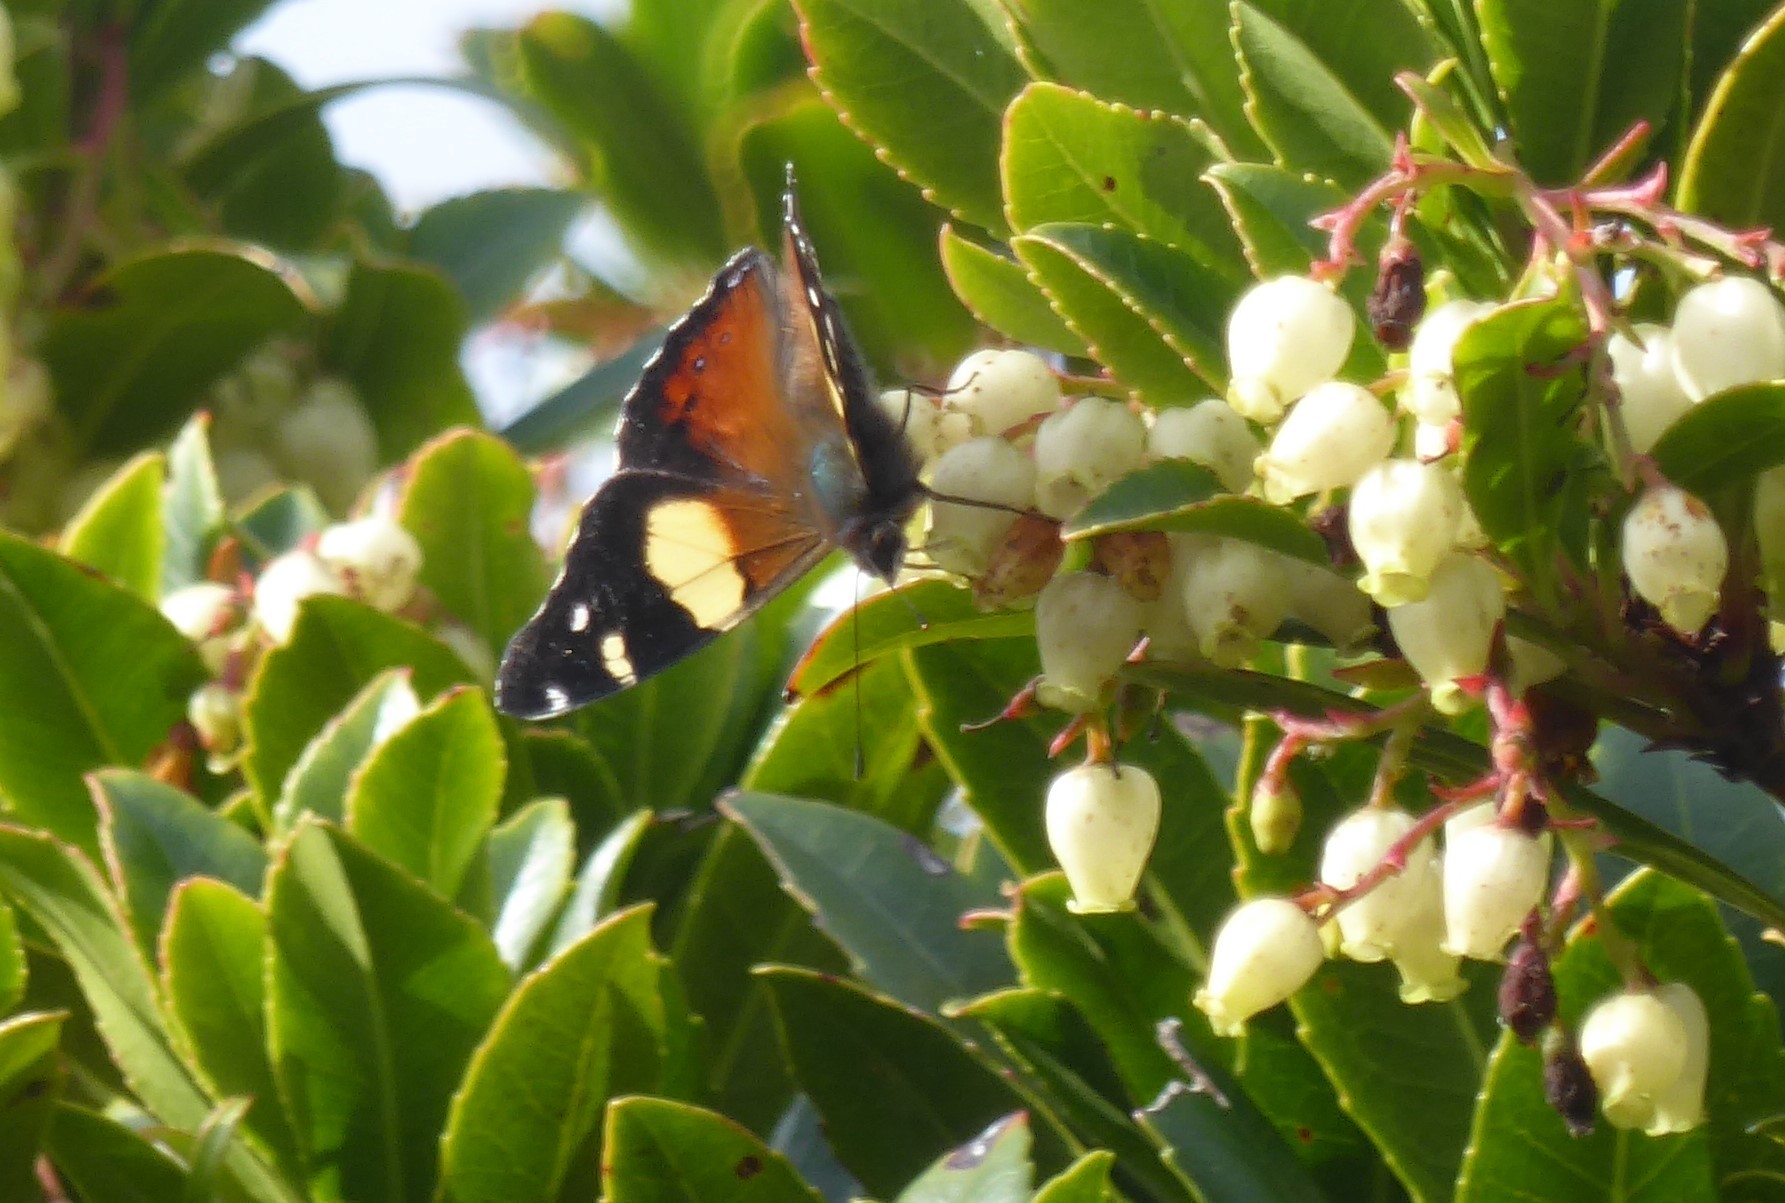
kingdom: Animalia
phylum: Arthropoda
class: Insecta
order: Lepidoptera
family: Nymphalidae
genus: Vanessa
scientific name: Vanessa itea
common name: Yellow admiral
